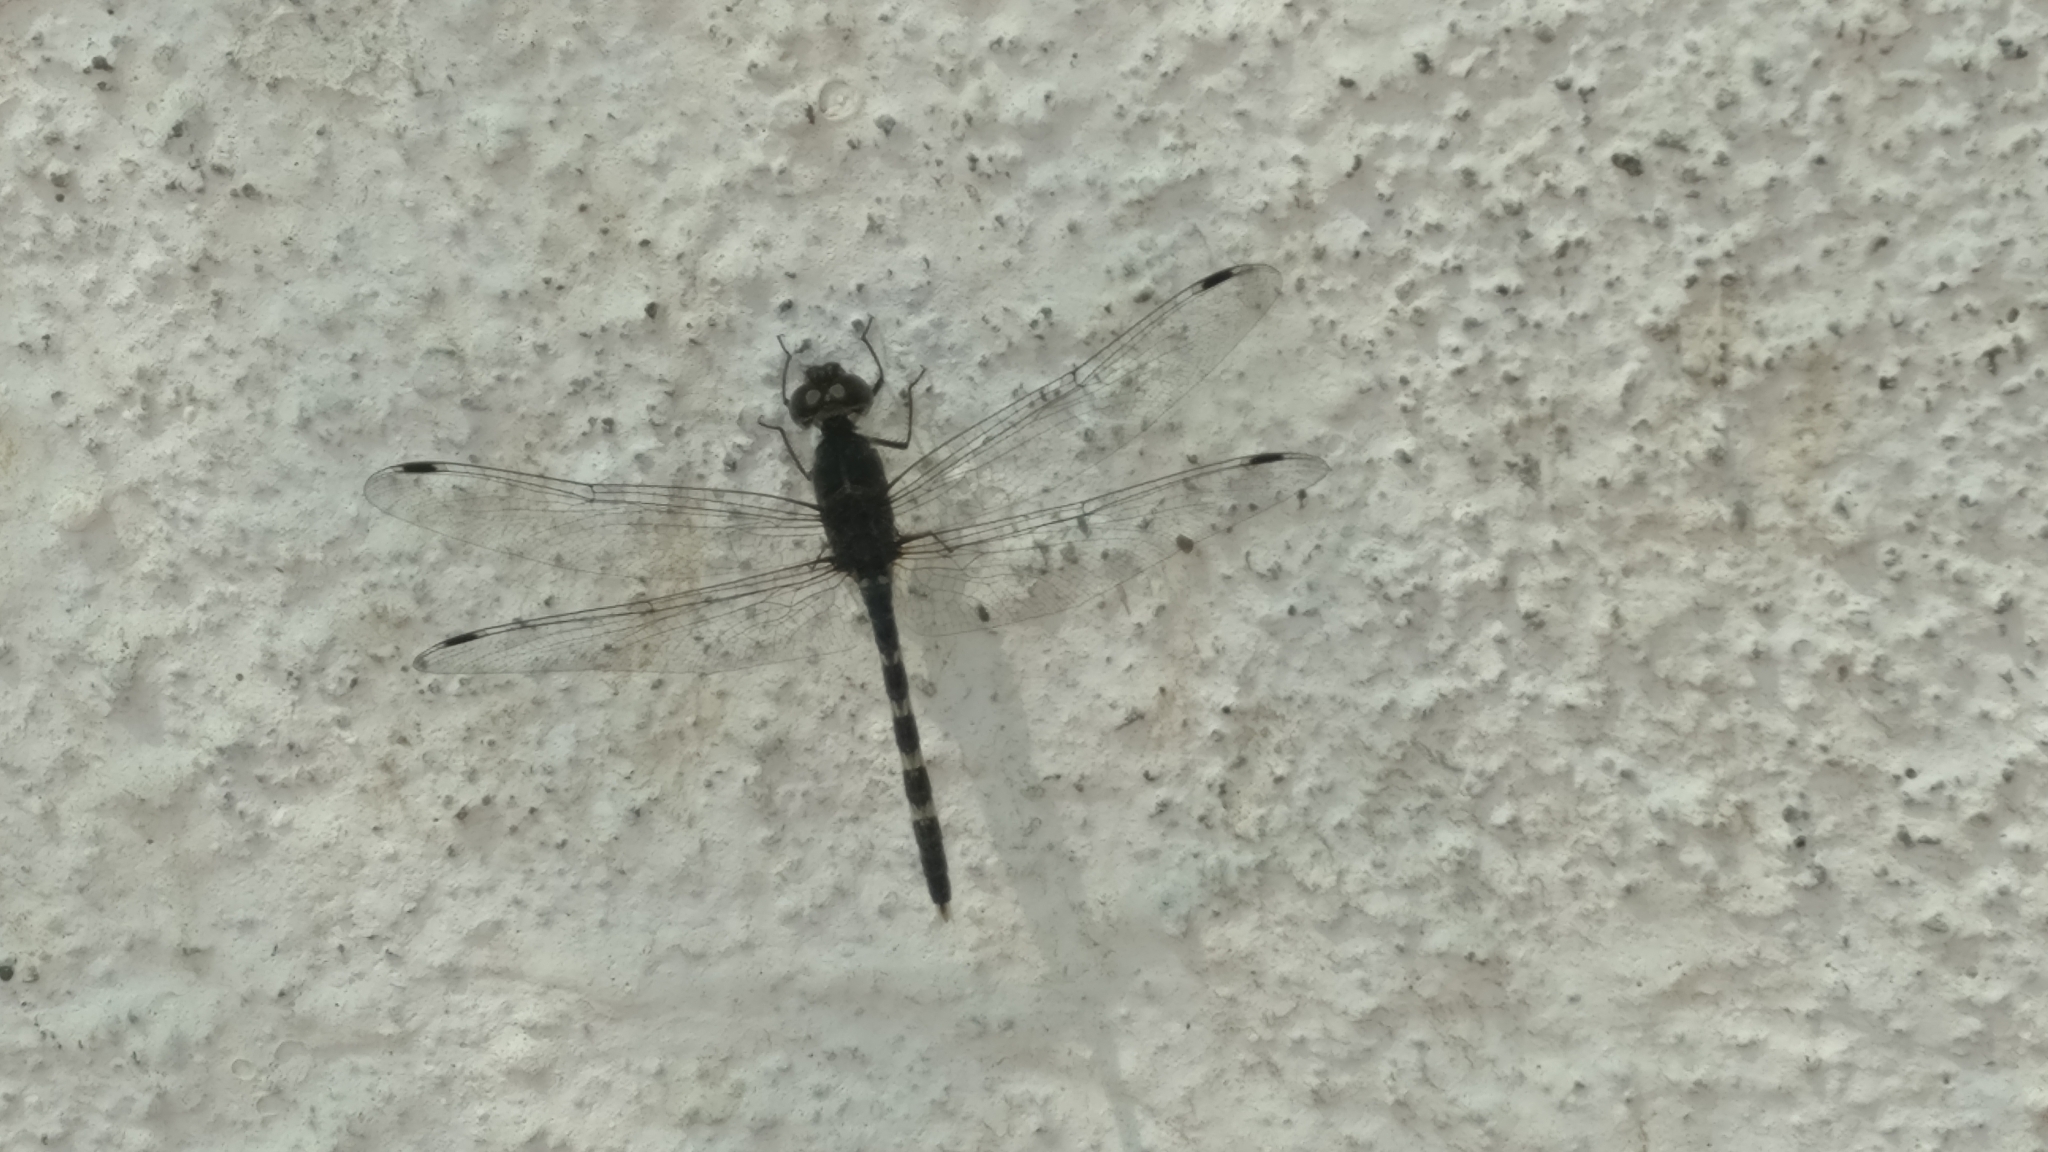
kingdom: Animalia
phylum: Arthropoda
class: Insecta
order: Odonata
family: Libellulidae
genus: Bradinopyga
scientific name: Bradinopyga geminata
